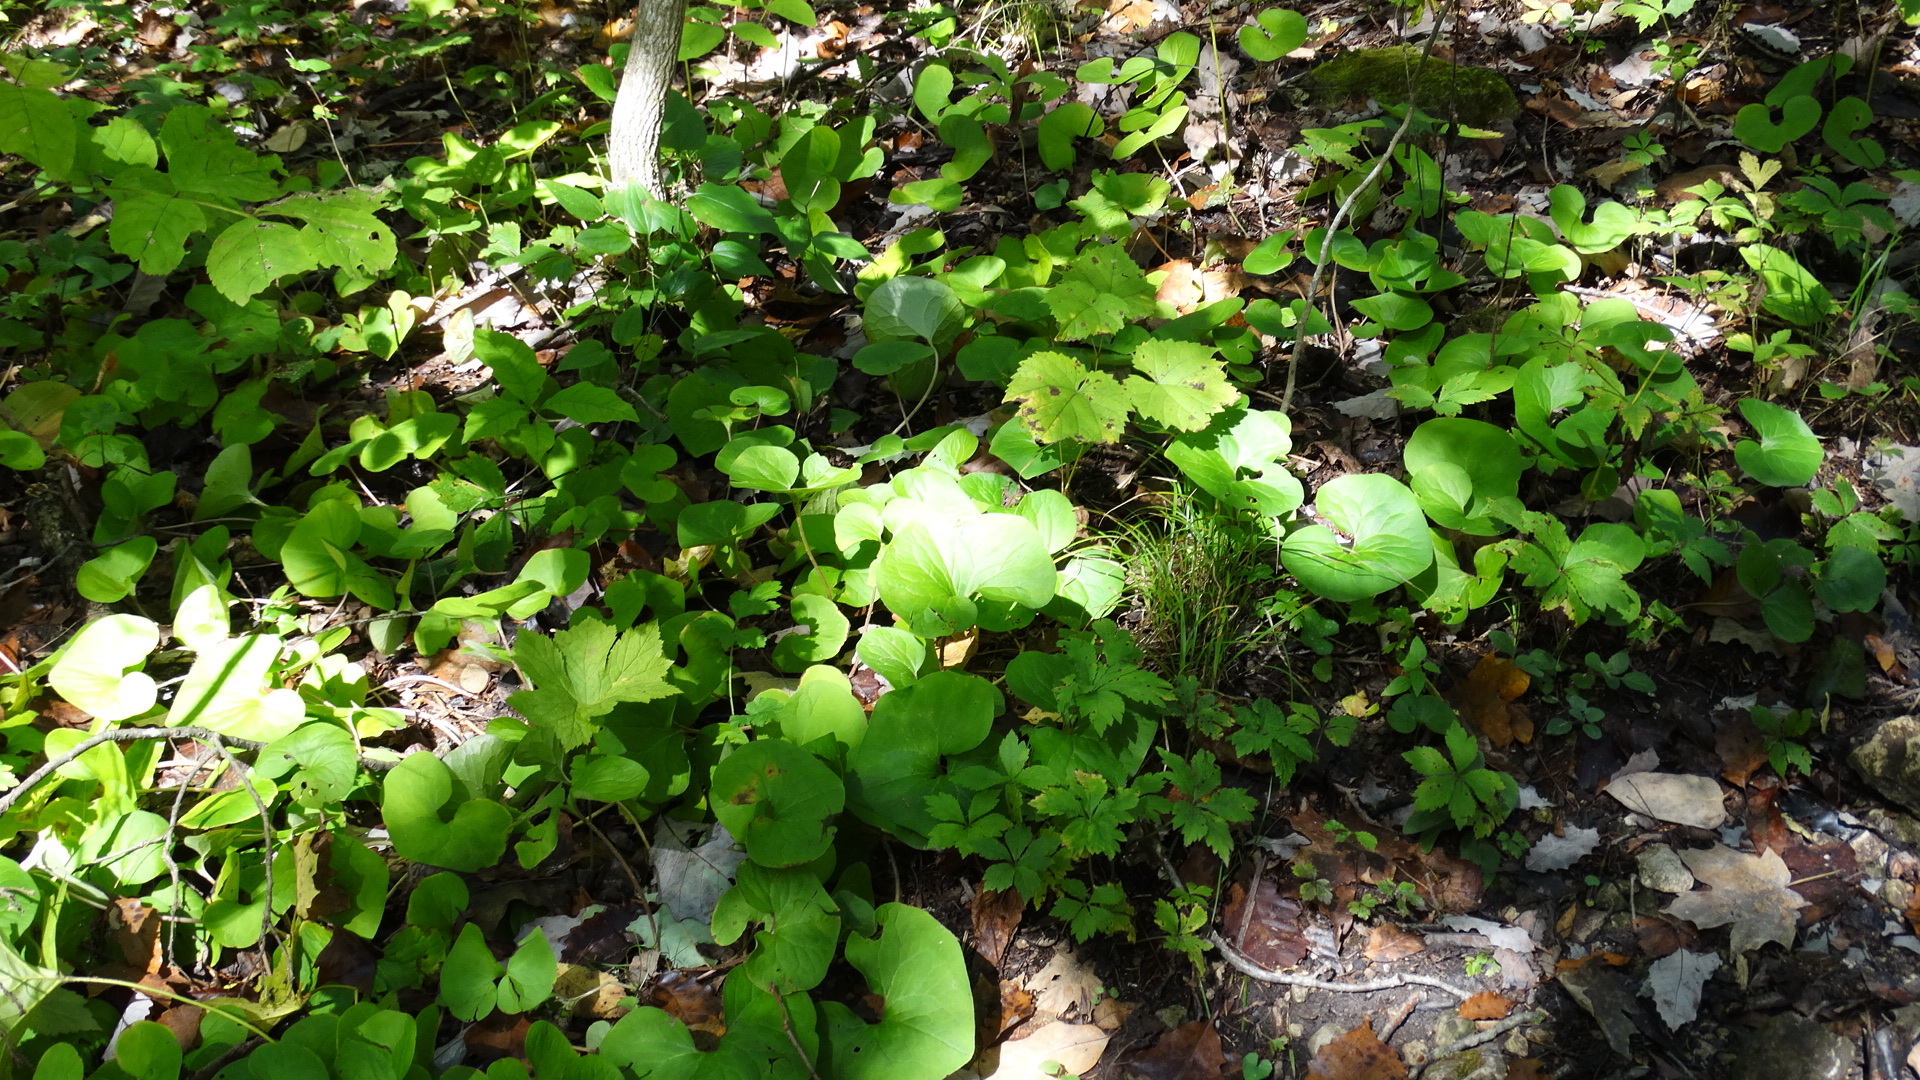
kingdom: Plantae
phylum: Tracheophyta
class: Magnoliopsida
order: Piperales
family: Aristolochiaceae
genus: Asarum
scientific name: Asarum canadense
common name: Wild ginger
